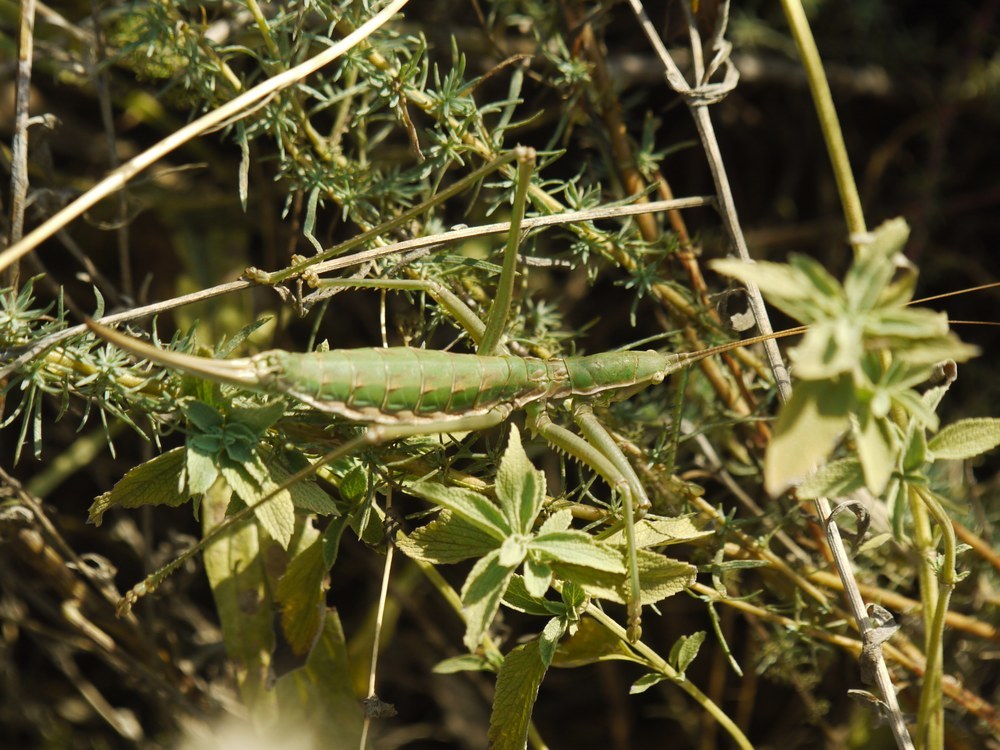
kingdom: Animalia
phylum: Arthropoda
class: Insecta
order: Orthoptera
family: Tettigoniidae
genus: Saga
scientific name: Saga pedo
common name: Common predatory bush-cricket
